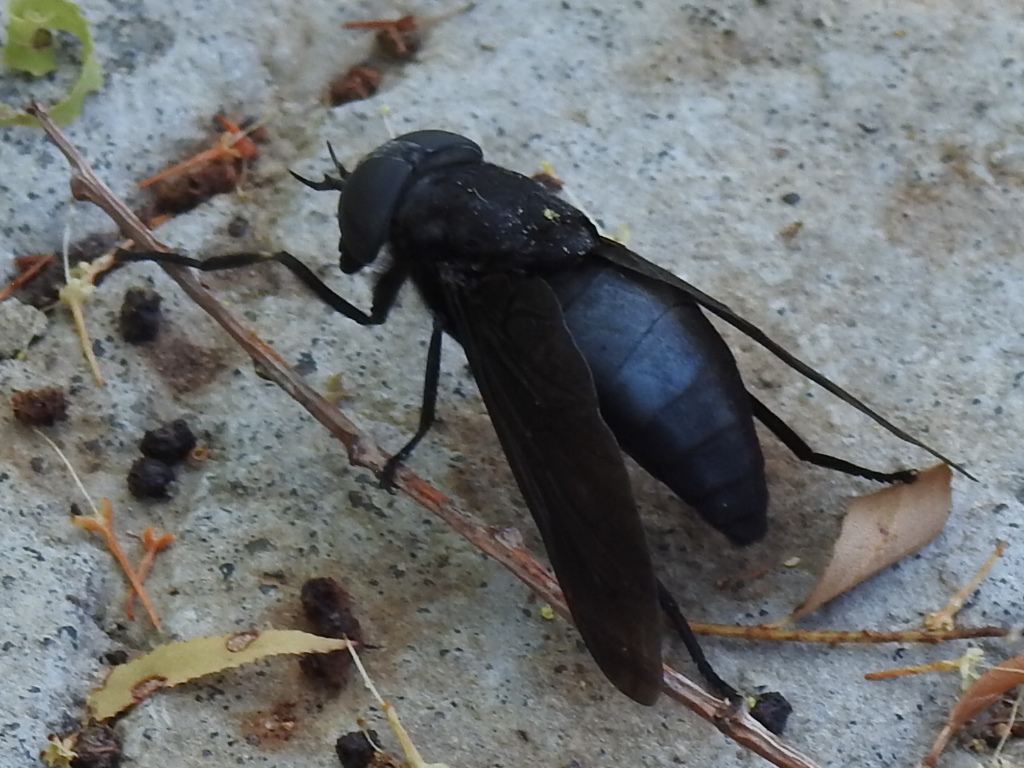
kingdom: Animalia
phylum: Arthropoda
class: Insecta
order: Diptera
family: Tabanidae
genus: Tabanus
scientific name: Tabanus atratus
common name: Black horse fly
